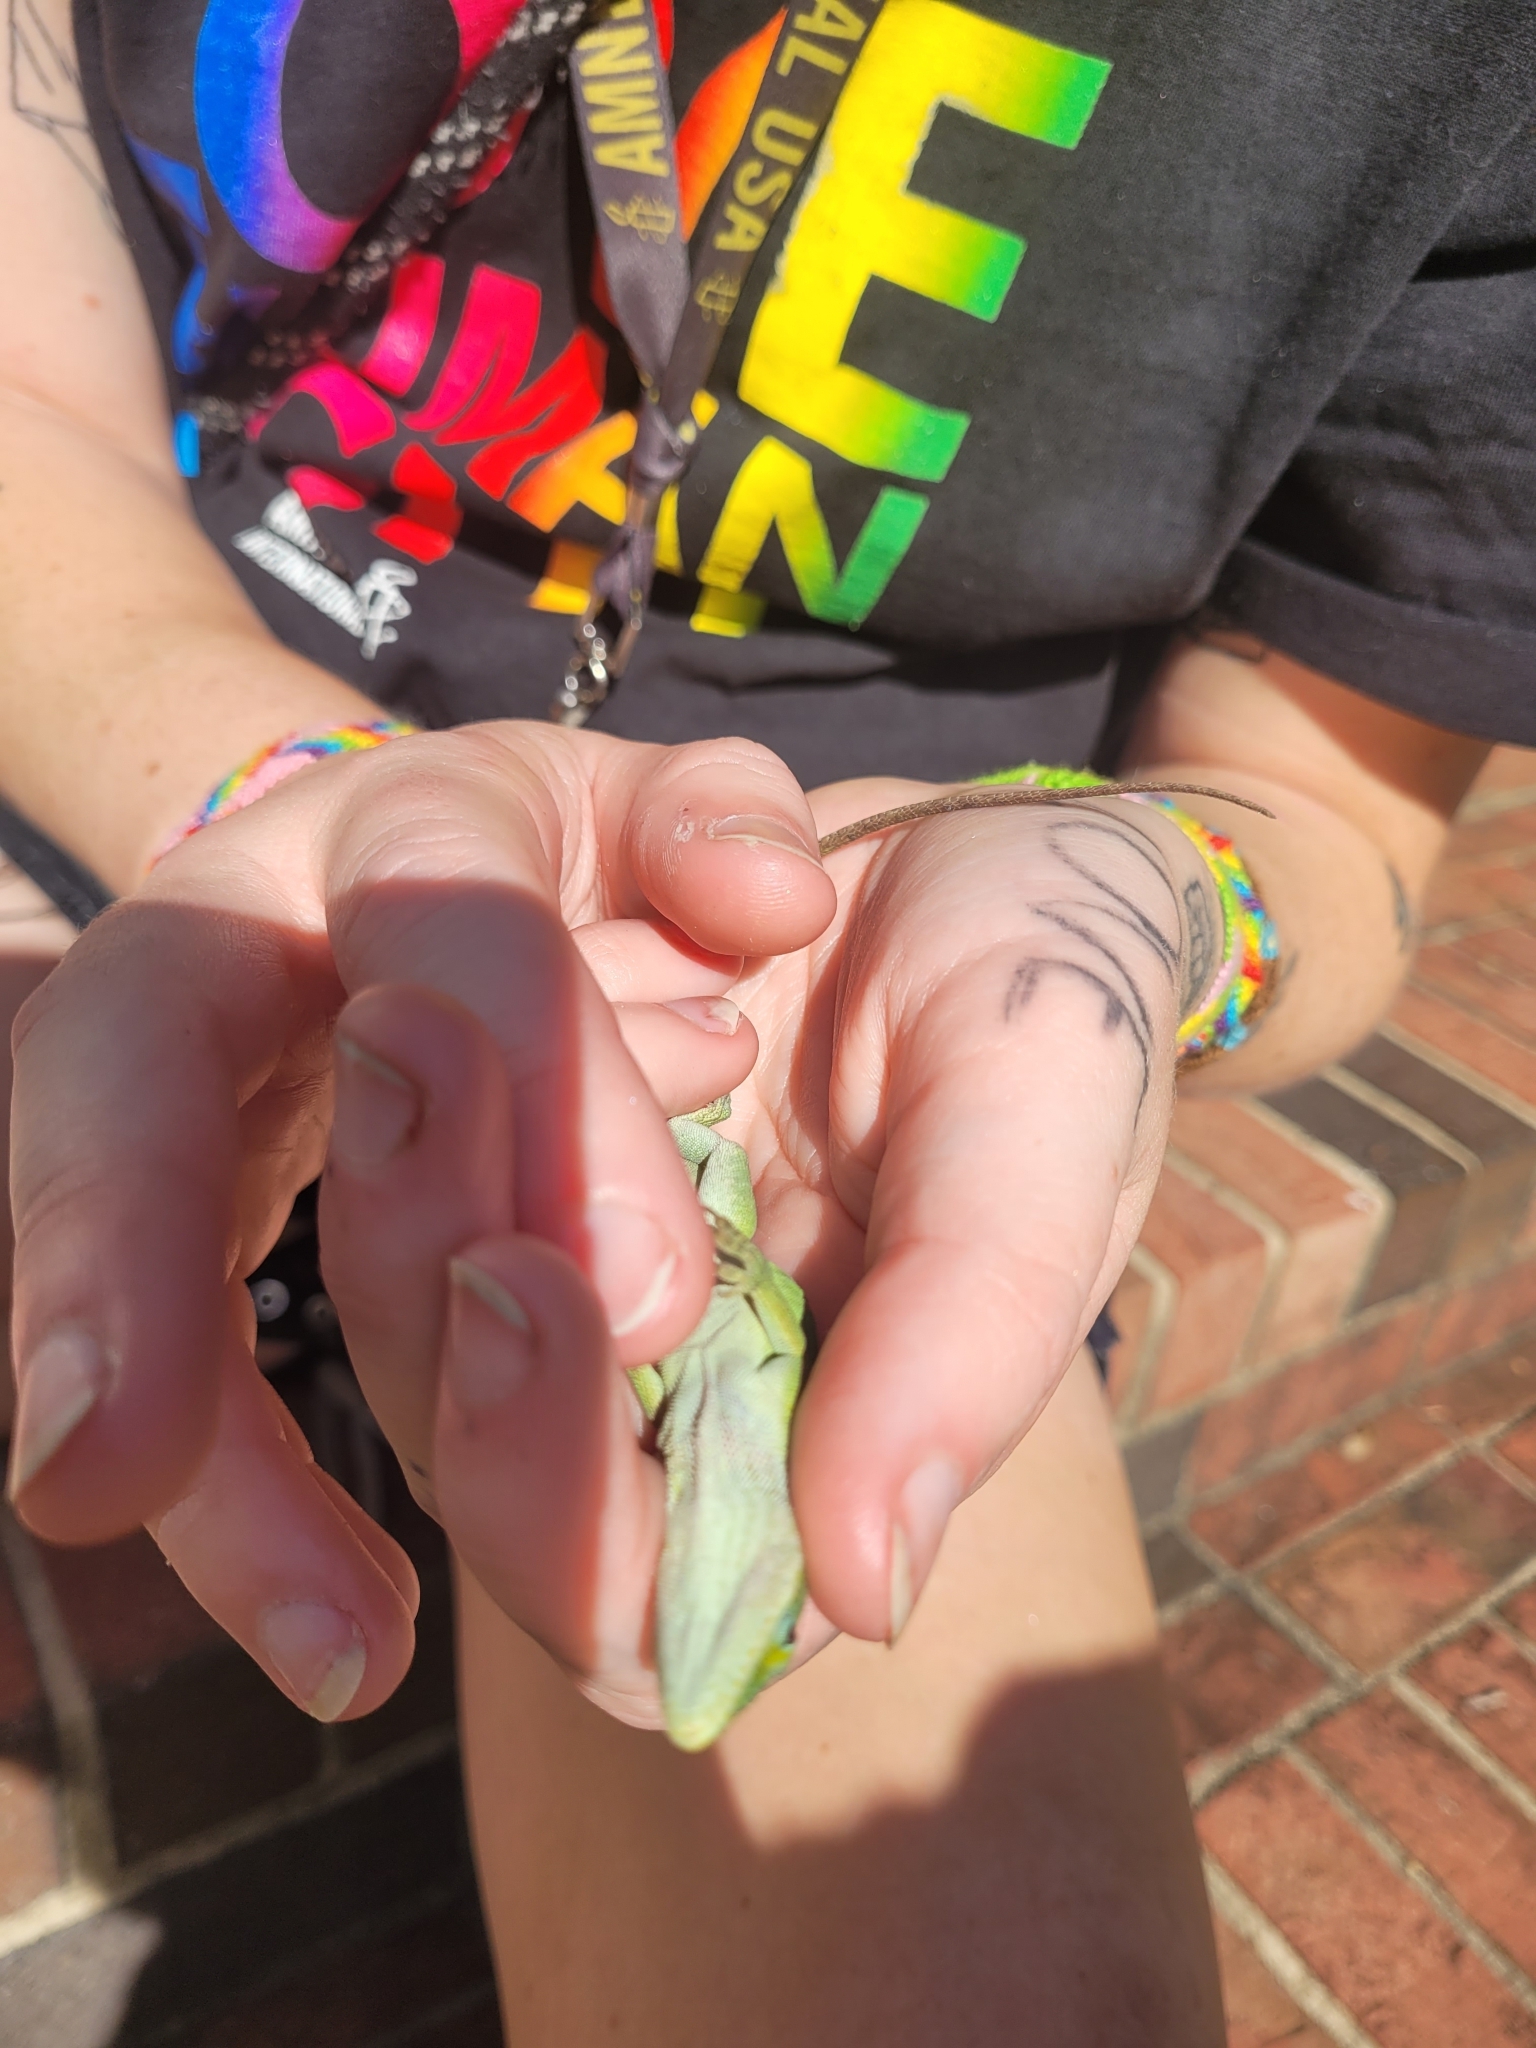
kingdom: Animalia
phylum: Chordata
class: Squamata
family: Dactyloidae
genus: Anolis
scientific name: Anolis carolinensis
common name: Green anole
